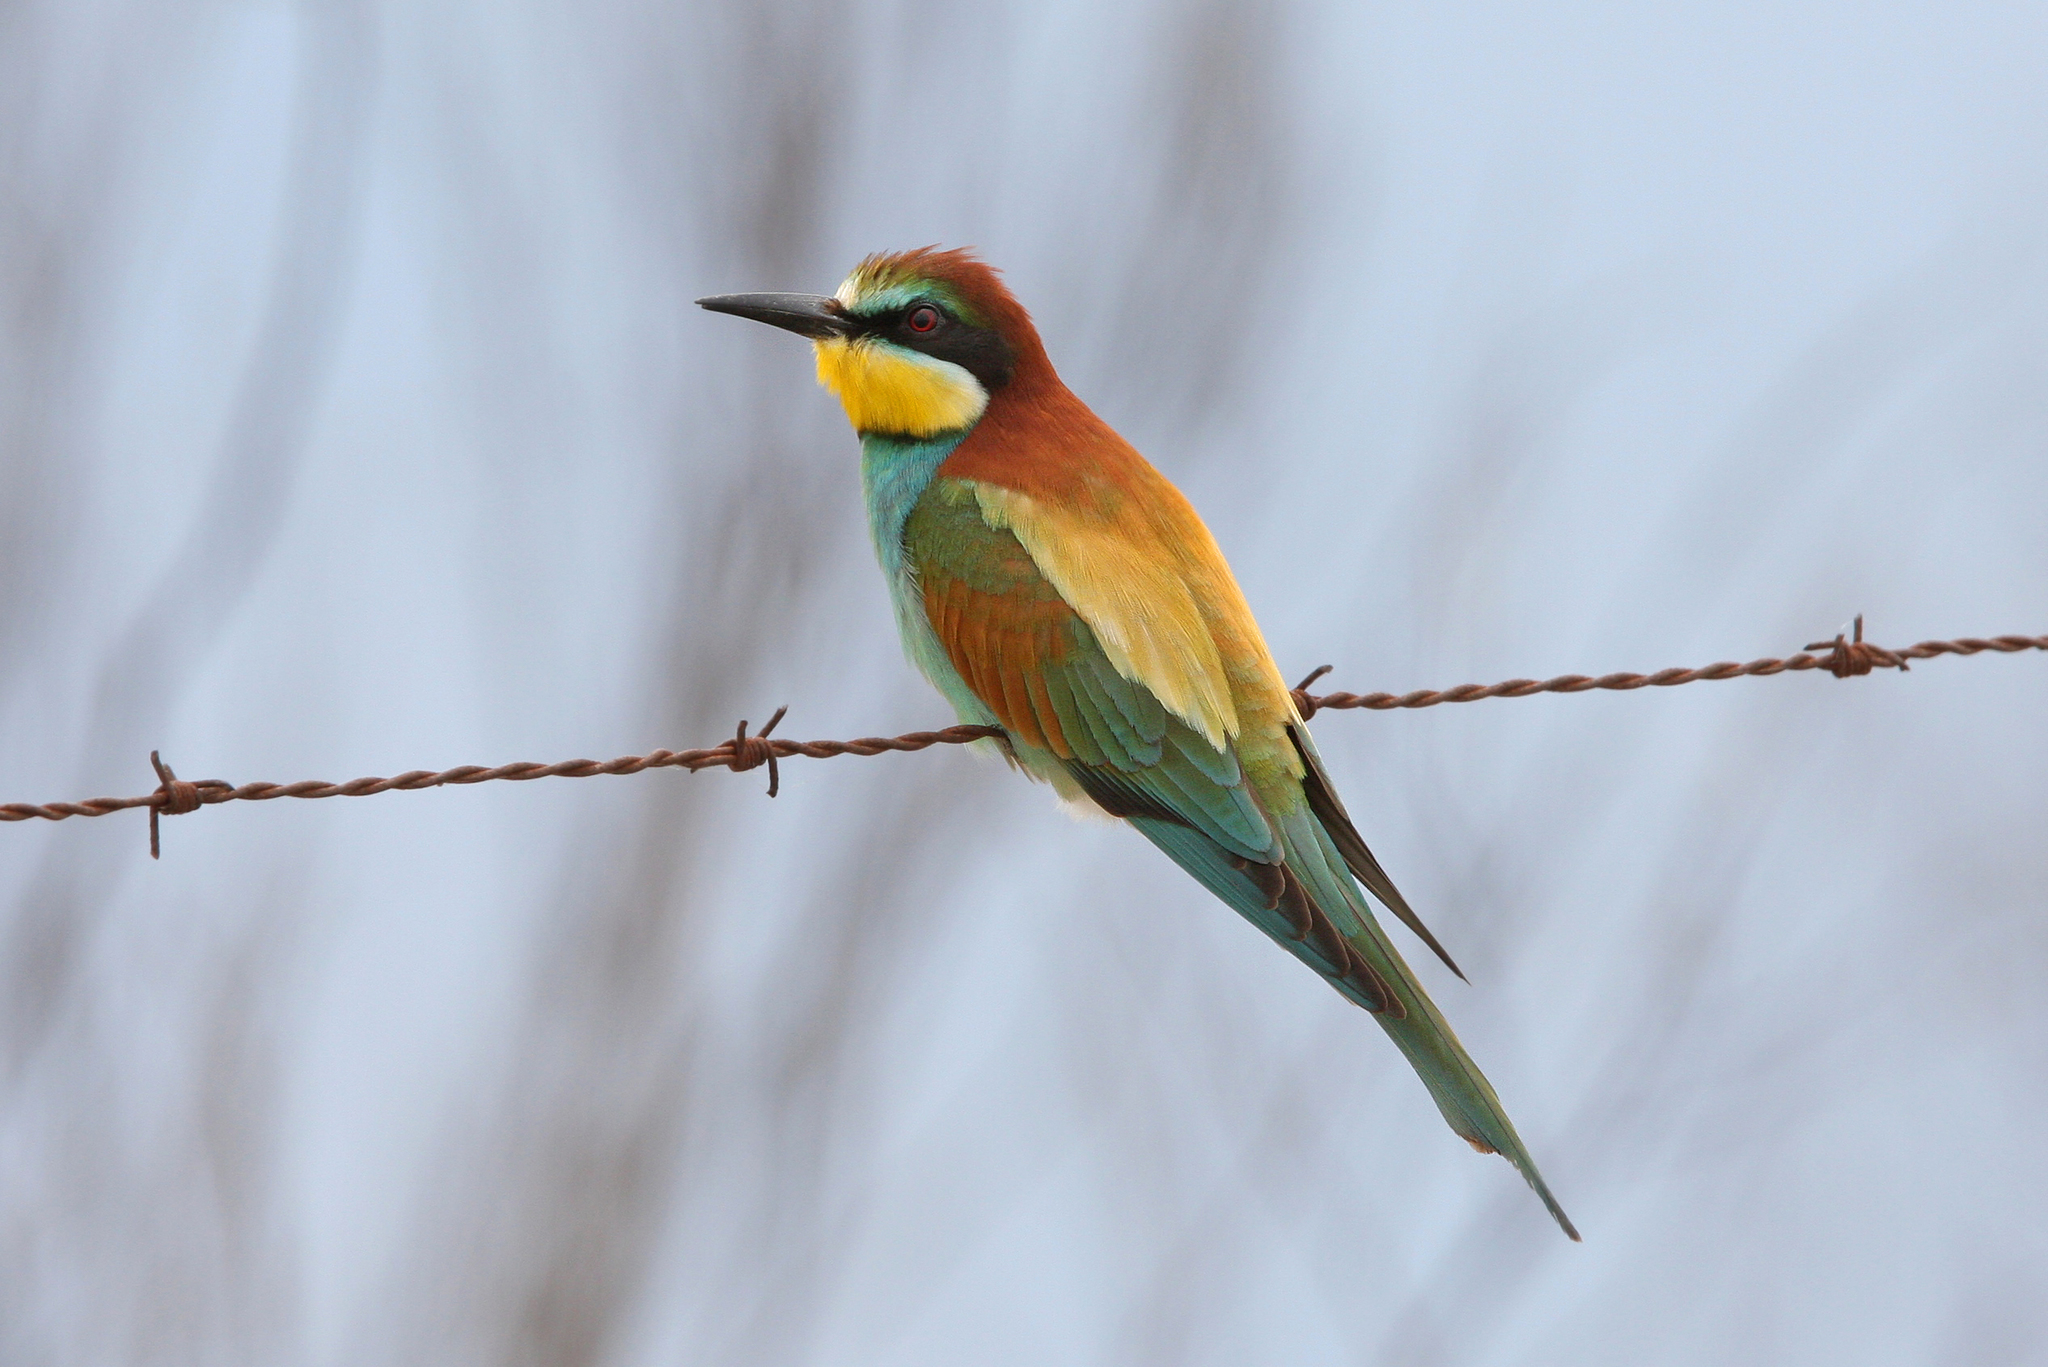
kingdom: Animalia
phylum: Chordata
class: Aves
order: Coraciiformes
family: Meropidae
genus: Merops
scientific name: Merops apiaster
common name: European bee-eater
